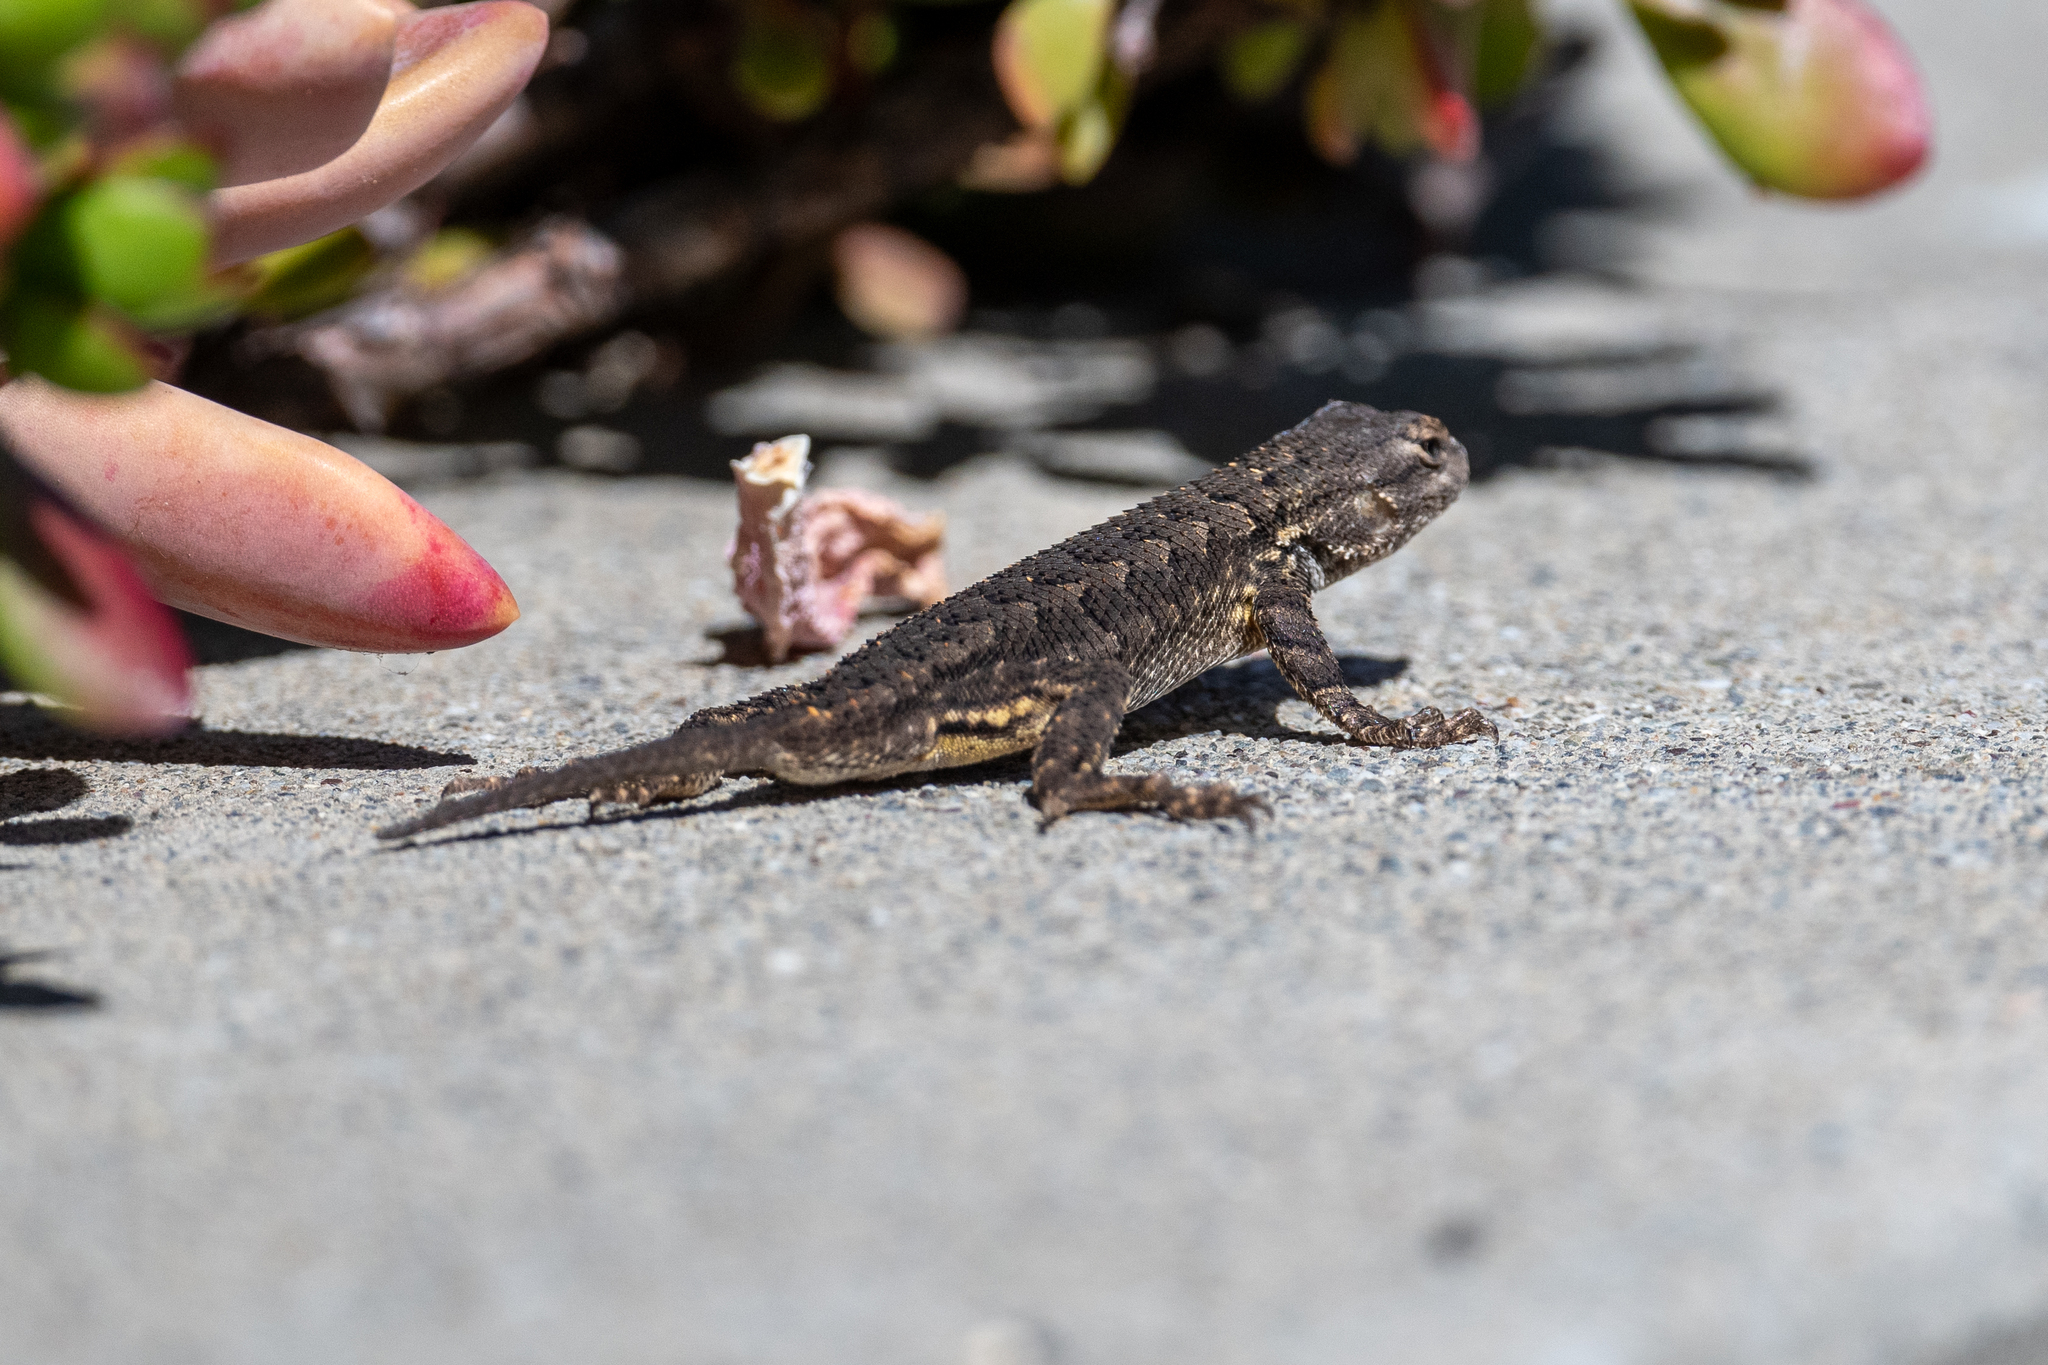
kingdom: Animalia
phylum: Chordata
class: Squamata
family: Phrynosomatidae
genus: Sceloporus
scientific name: Sceloporus occidentalis
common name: Western fence lizard
